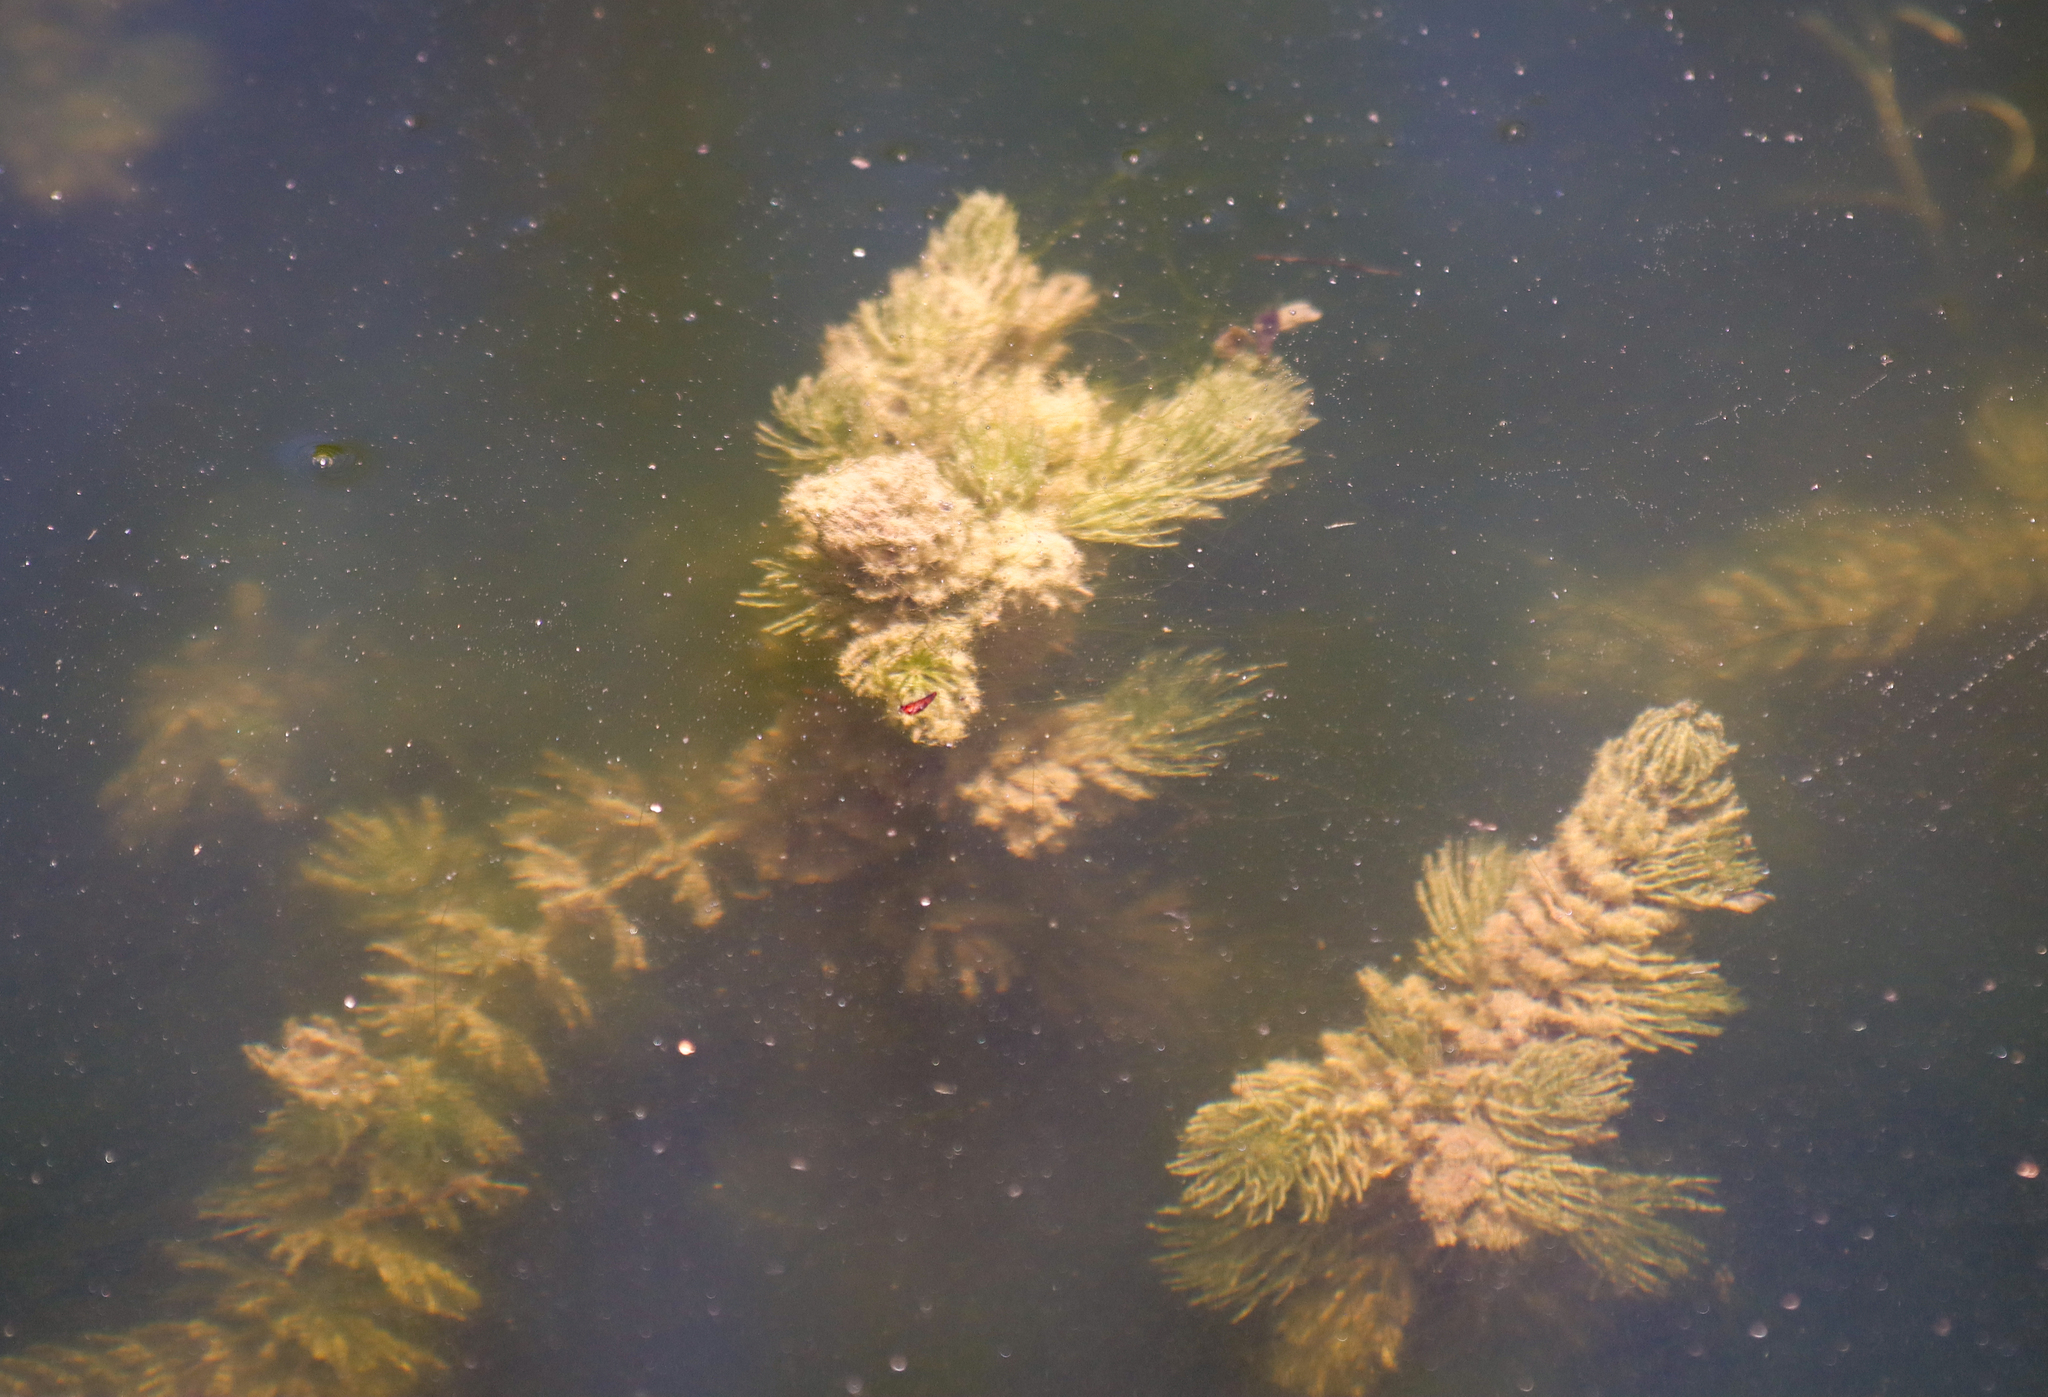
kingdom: Plantae
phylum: Tracheophyta
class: Magnoliopsida
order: Ceratophyllales
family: Ceratophyllaceae
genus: Ceratophyllum
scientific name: Ceratophyllum demersum
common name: Rigid hornwort
